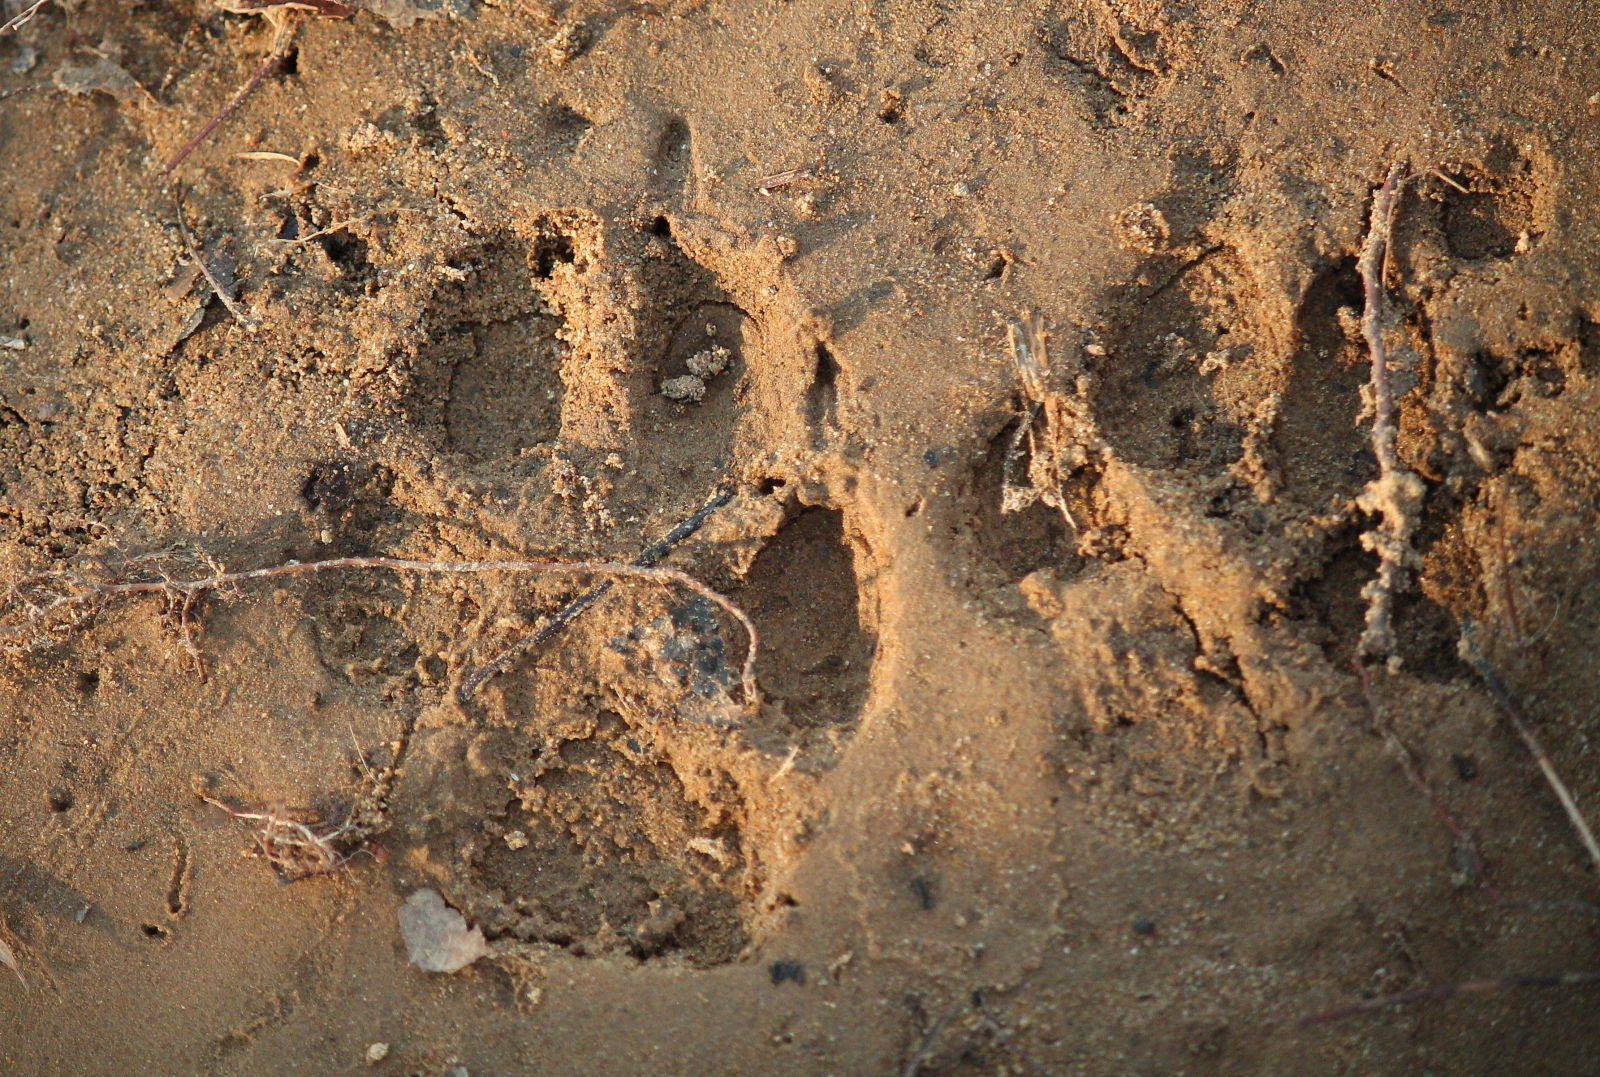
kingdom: Animalia
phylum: Chordata
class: Mammalia
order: Carnivora
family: Canidae
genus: Canis
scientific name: Canis latrans
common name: Coyote
